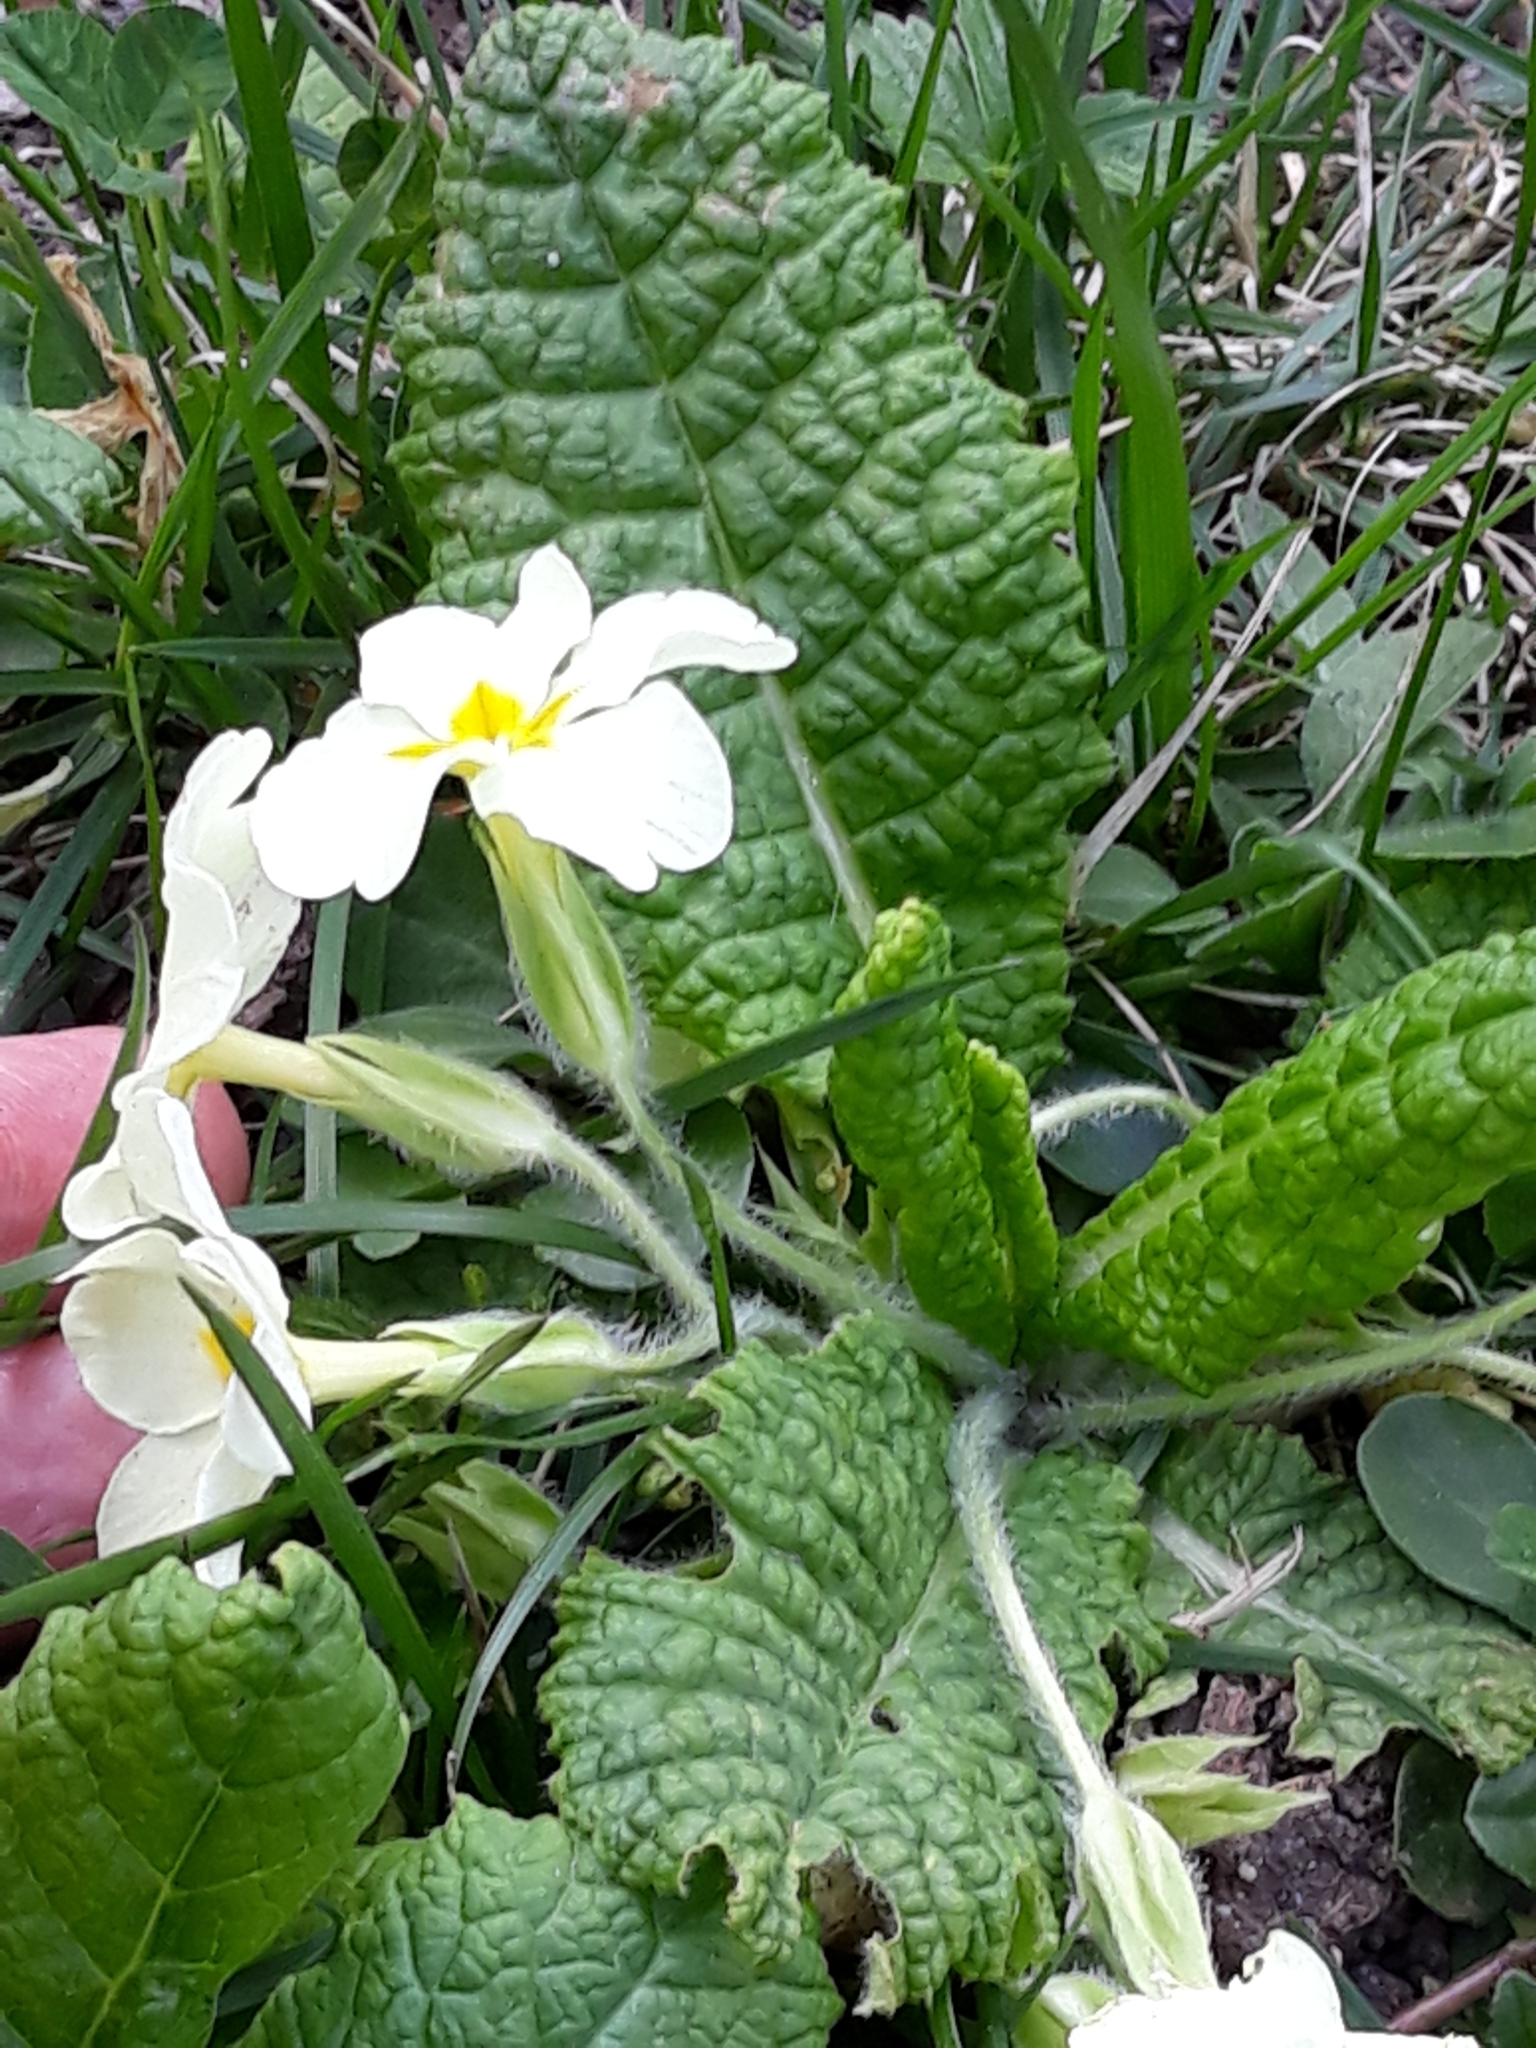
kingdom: Plantae
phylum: Tracheophyta
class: Magnoliopsida
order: Ericales
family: Primulaceae
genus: Primula
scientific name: Primula vulgaris
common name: Primrose
